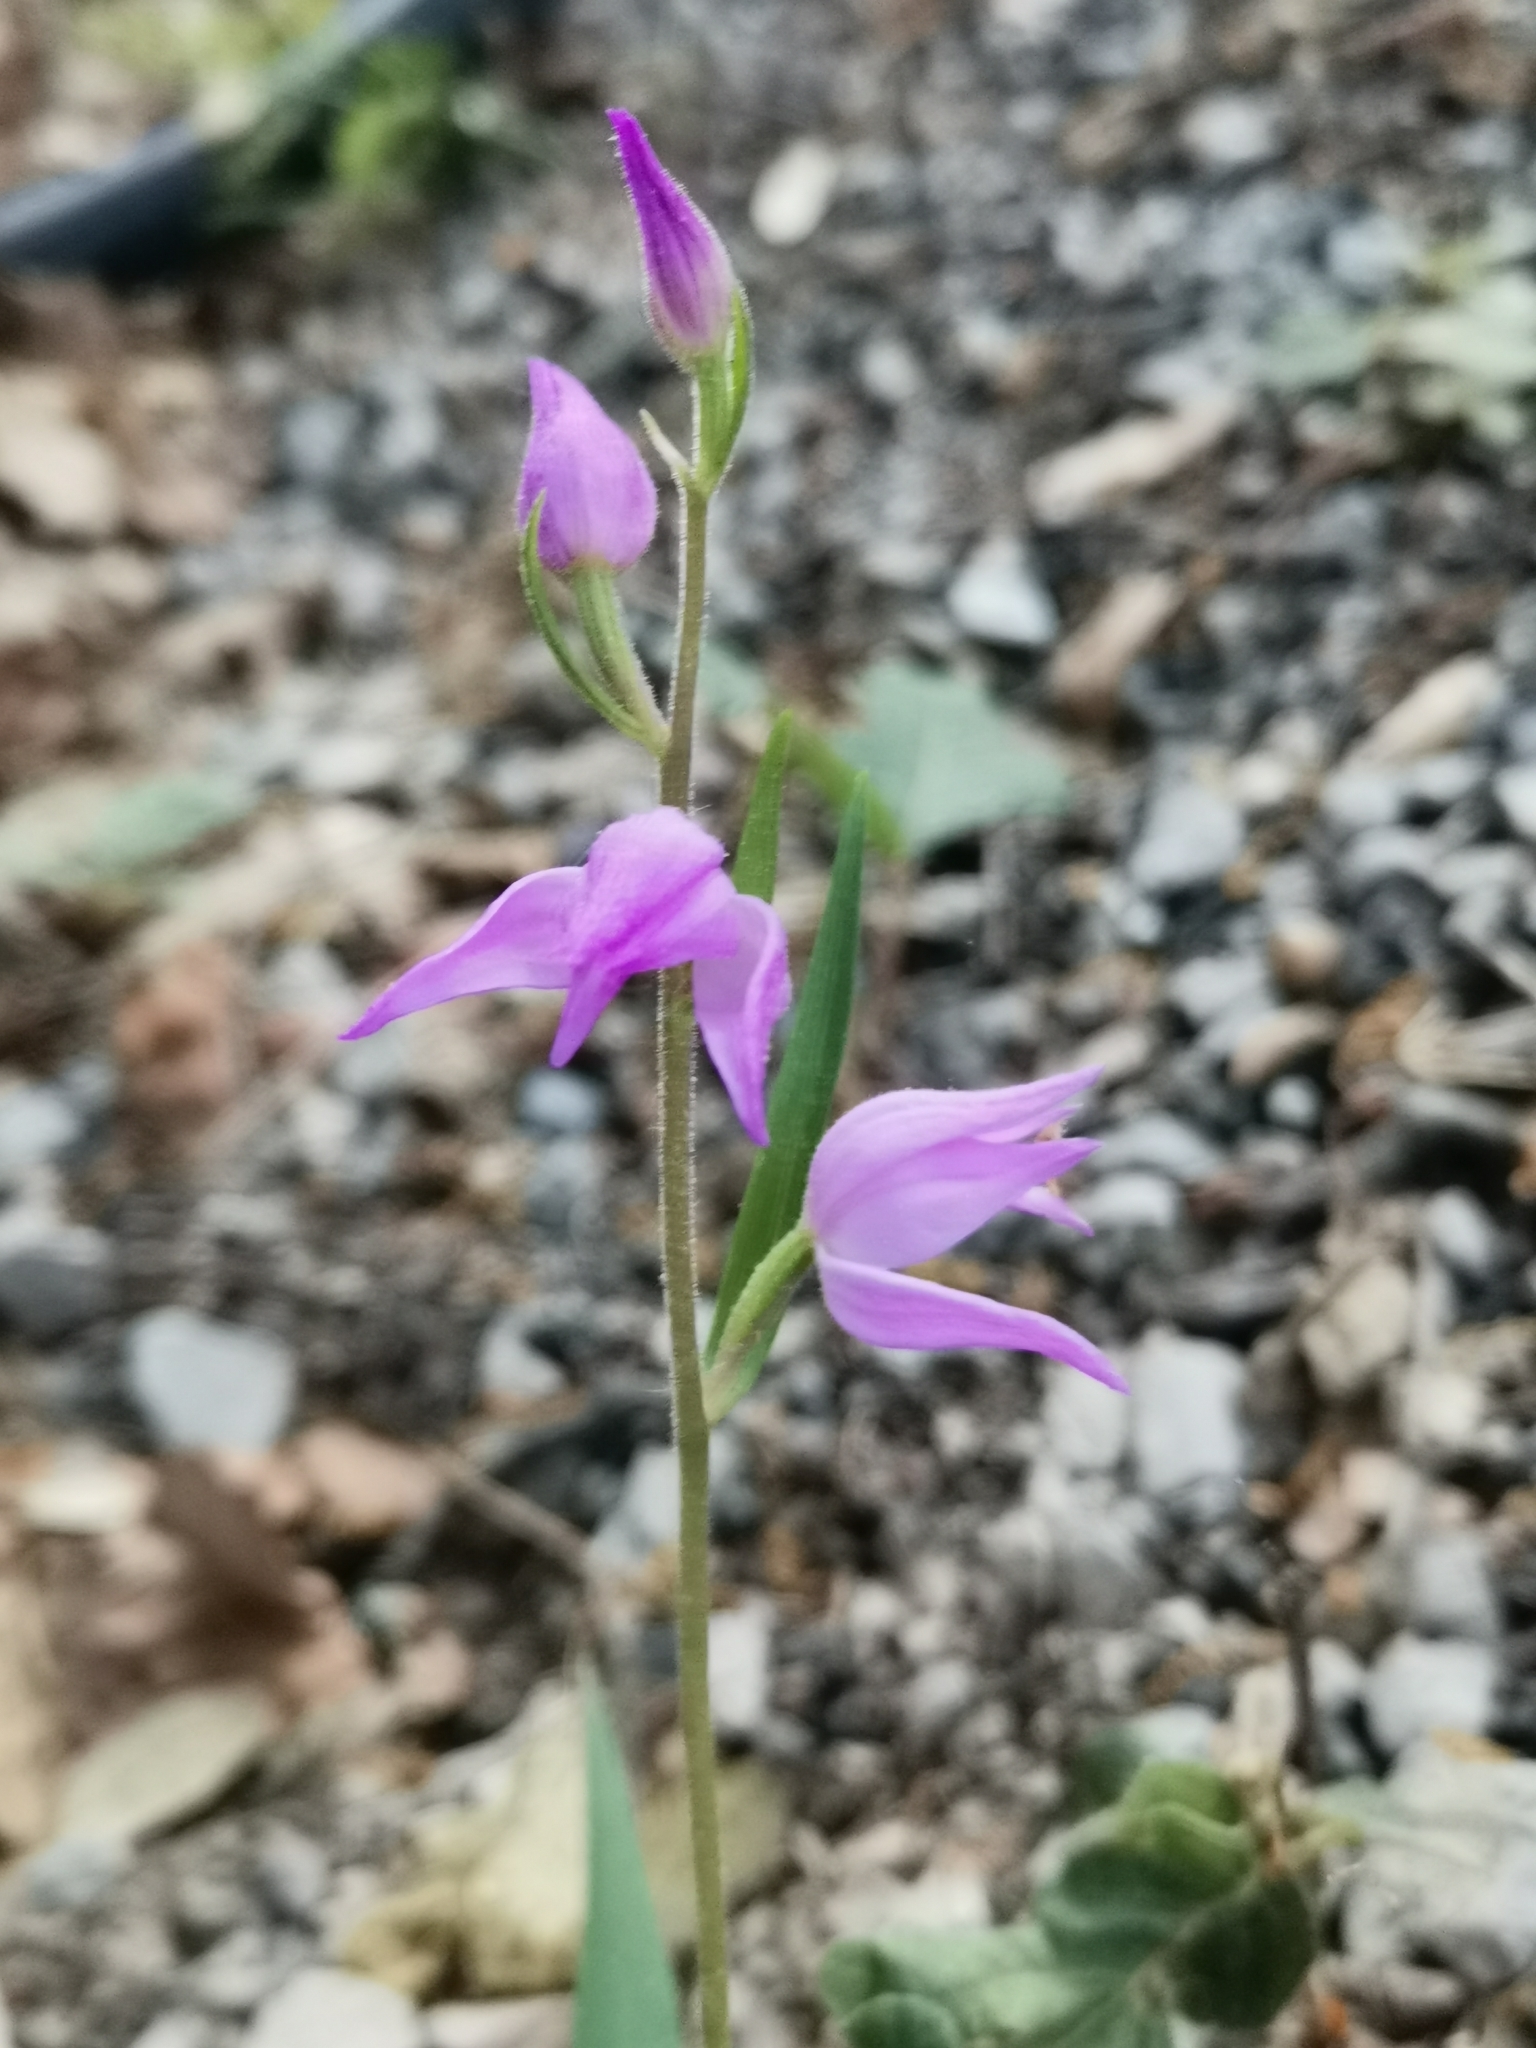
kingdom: Plantae
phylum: Tracheophyta
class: Liliopsida
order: Asparagales
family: Orchidaceae
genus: Cephalanthera
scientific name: Cephalanthera rubra
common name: Red helleborine
